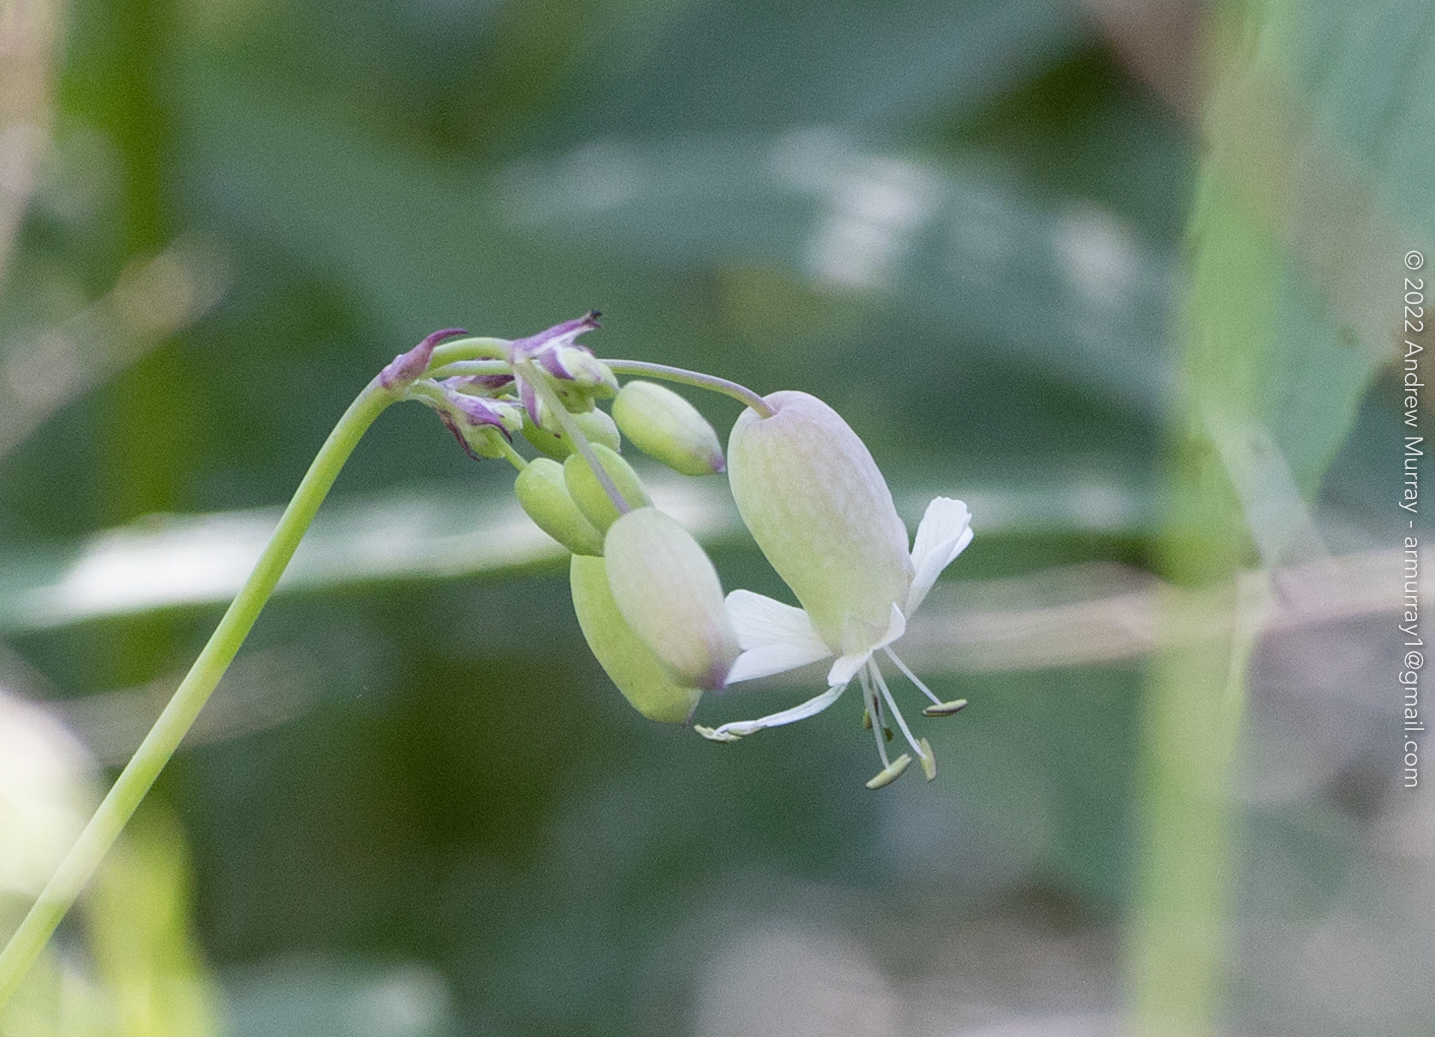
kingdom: Plantae
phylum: Tracheophyta
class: Magnoliopsida
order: Caryophyllales
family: Caryophyllaceae
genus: Silene
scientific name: Silene vulgaris
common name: Bladder campion
